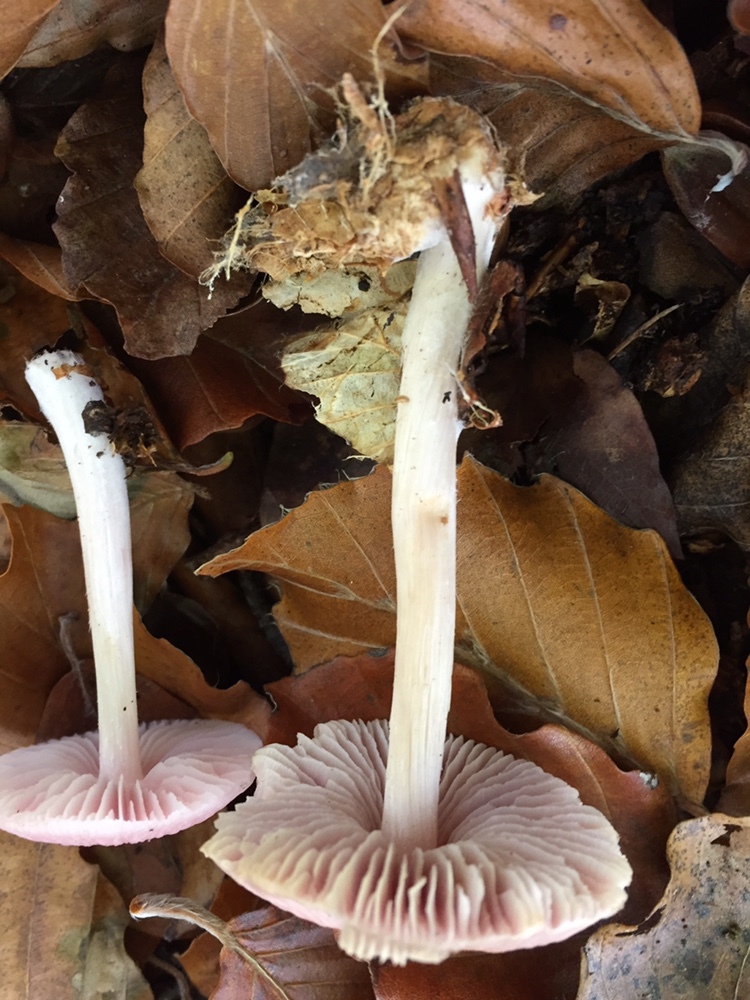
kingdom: Fungi
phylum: Basidiomycota
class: Agaricomycetes
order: Agaricales
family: Mycenaceae
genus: Mycena
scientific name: Mycena rosea
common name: Rosy bonnet
